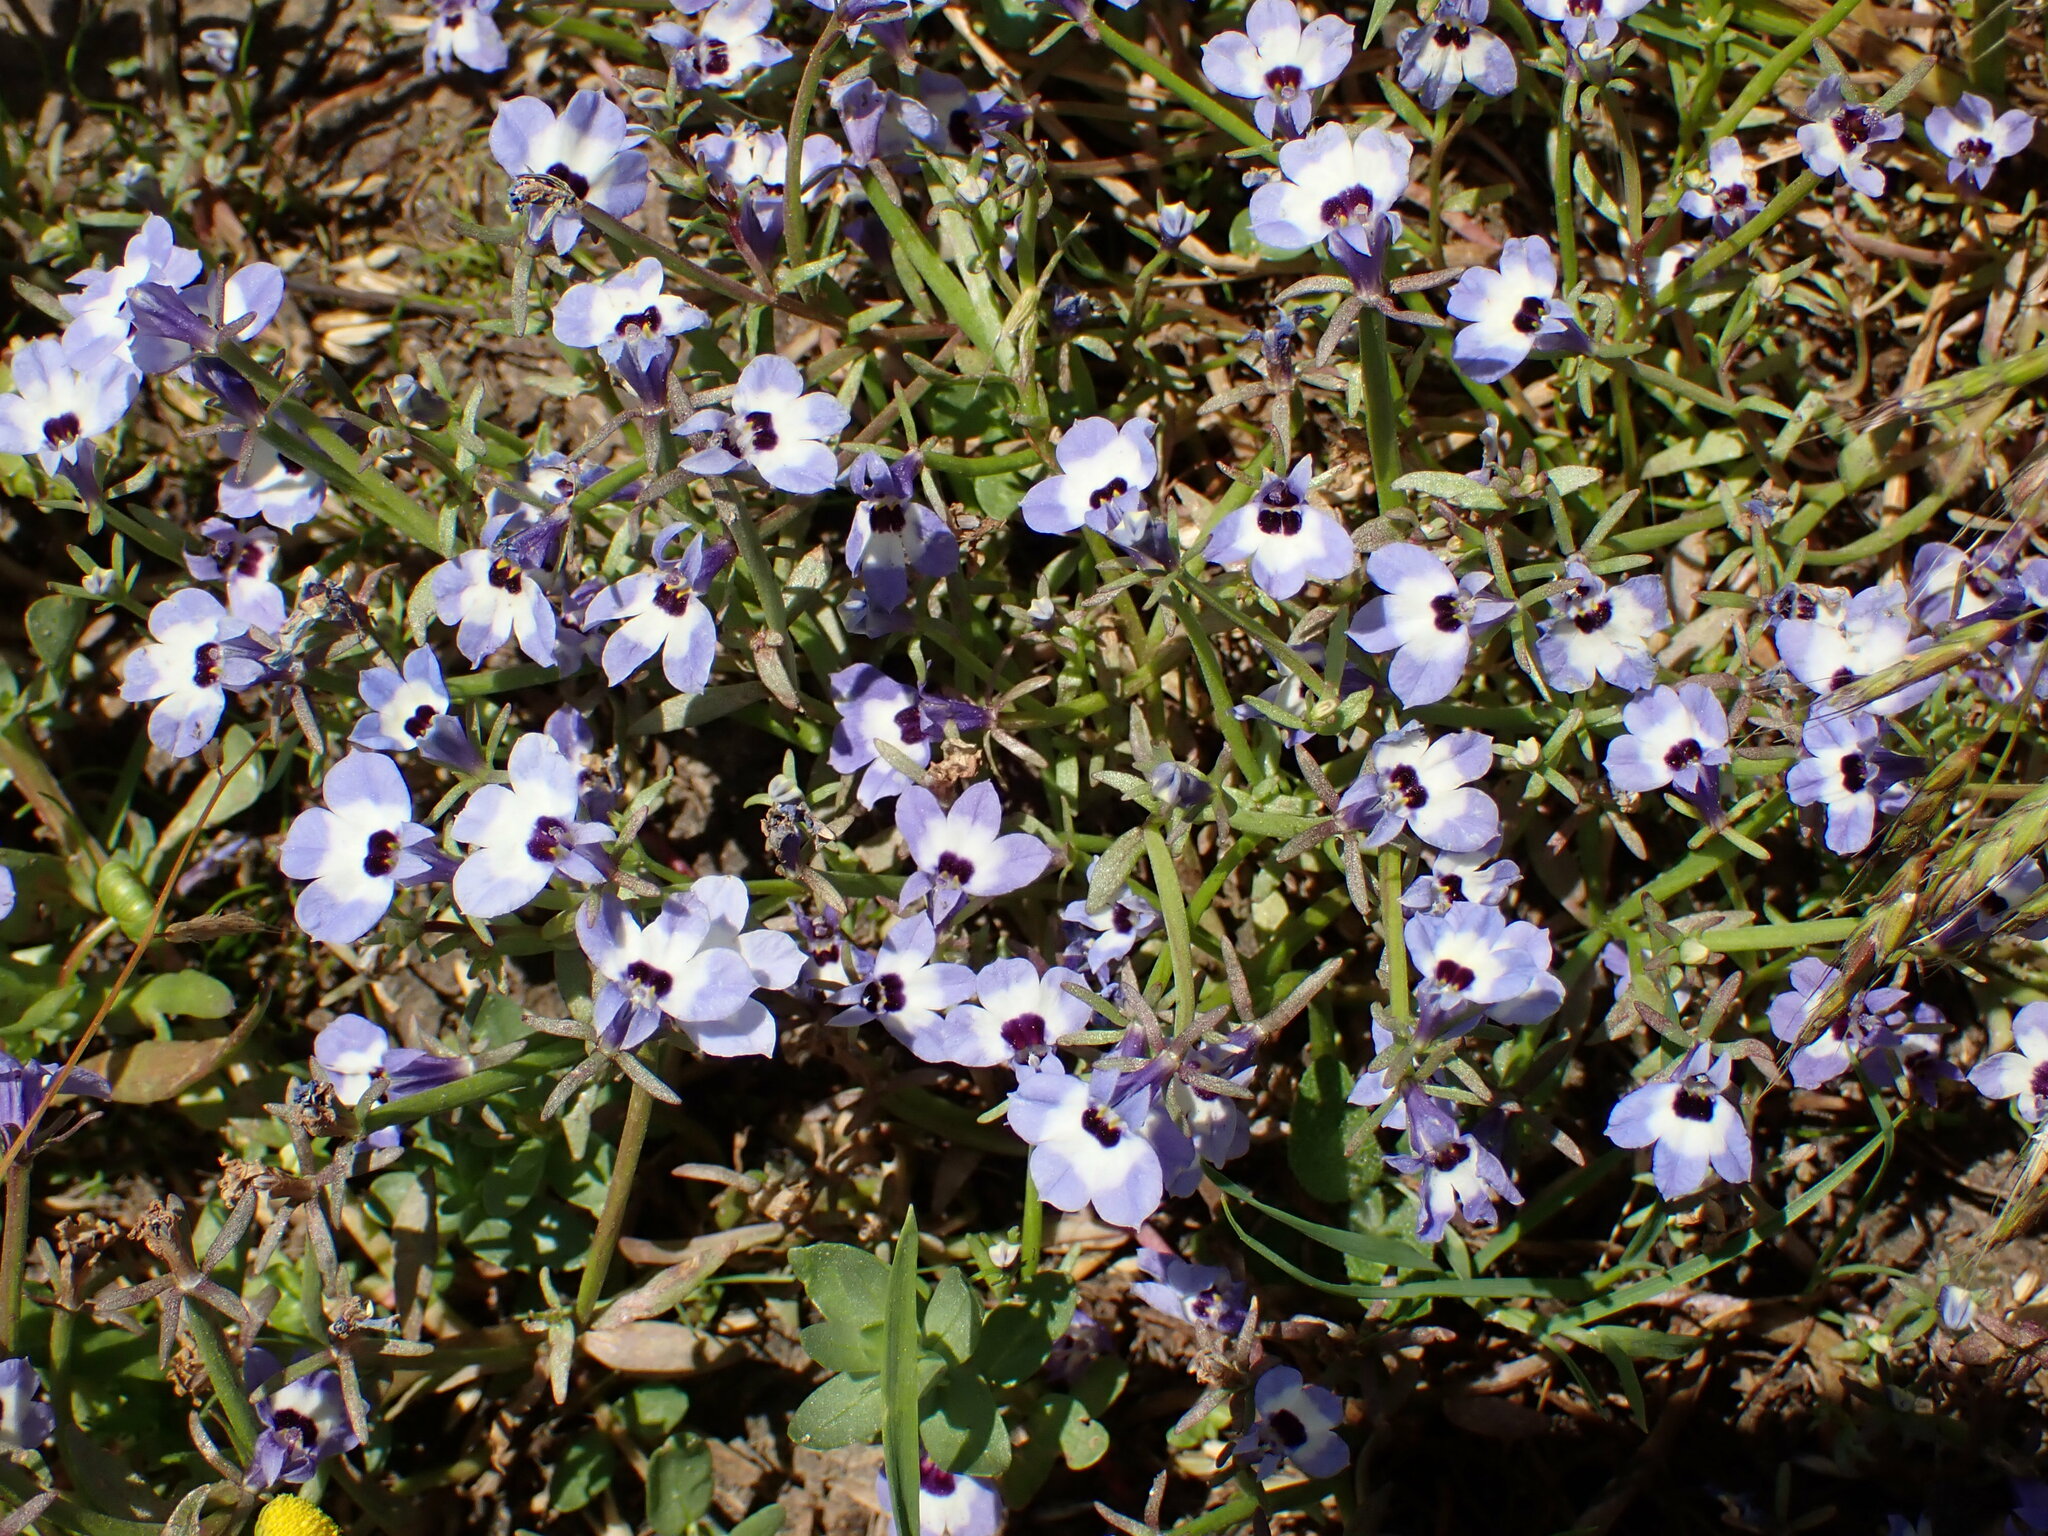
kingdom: Plantae
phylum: Tracheophyta
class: Magnoliopsida
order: Asterales
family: Campanulaceae
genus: Downingia
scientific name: Downingia concolor
